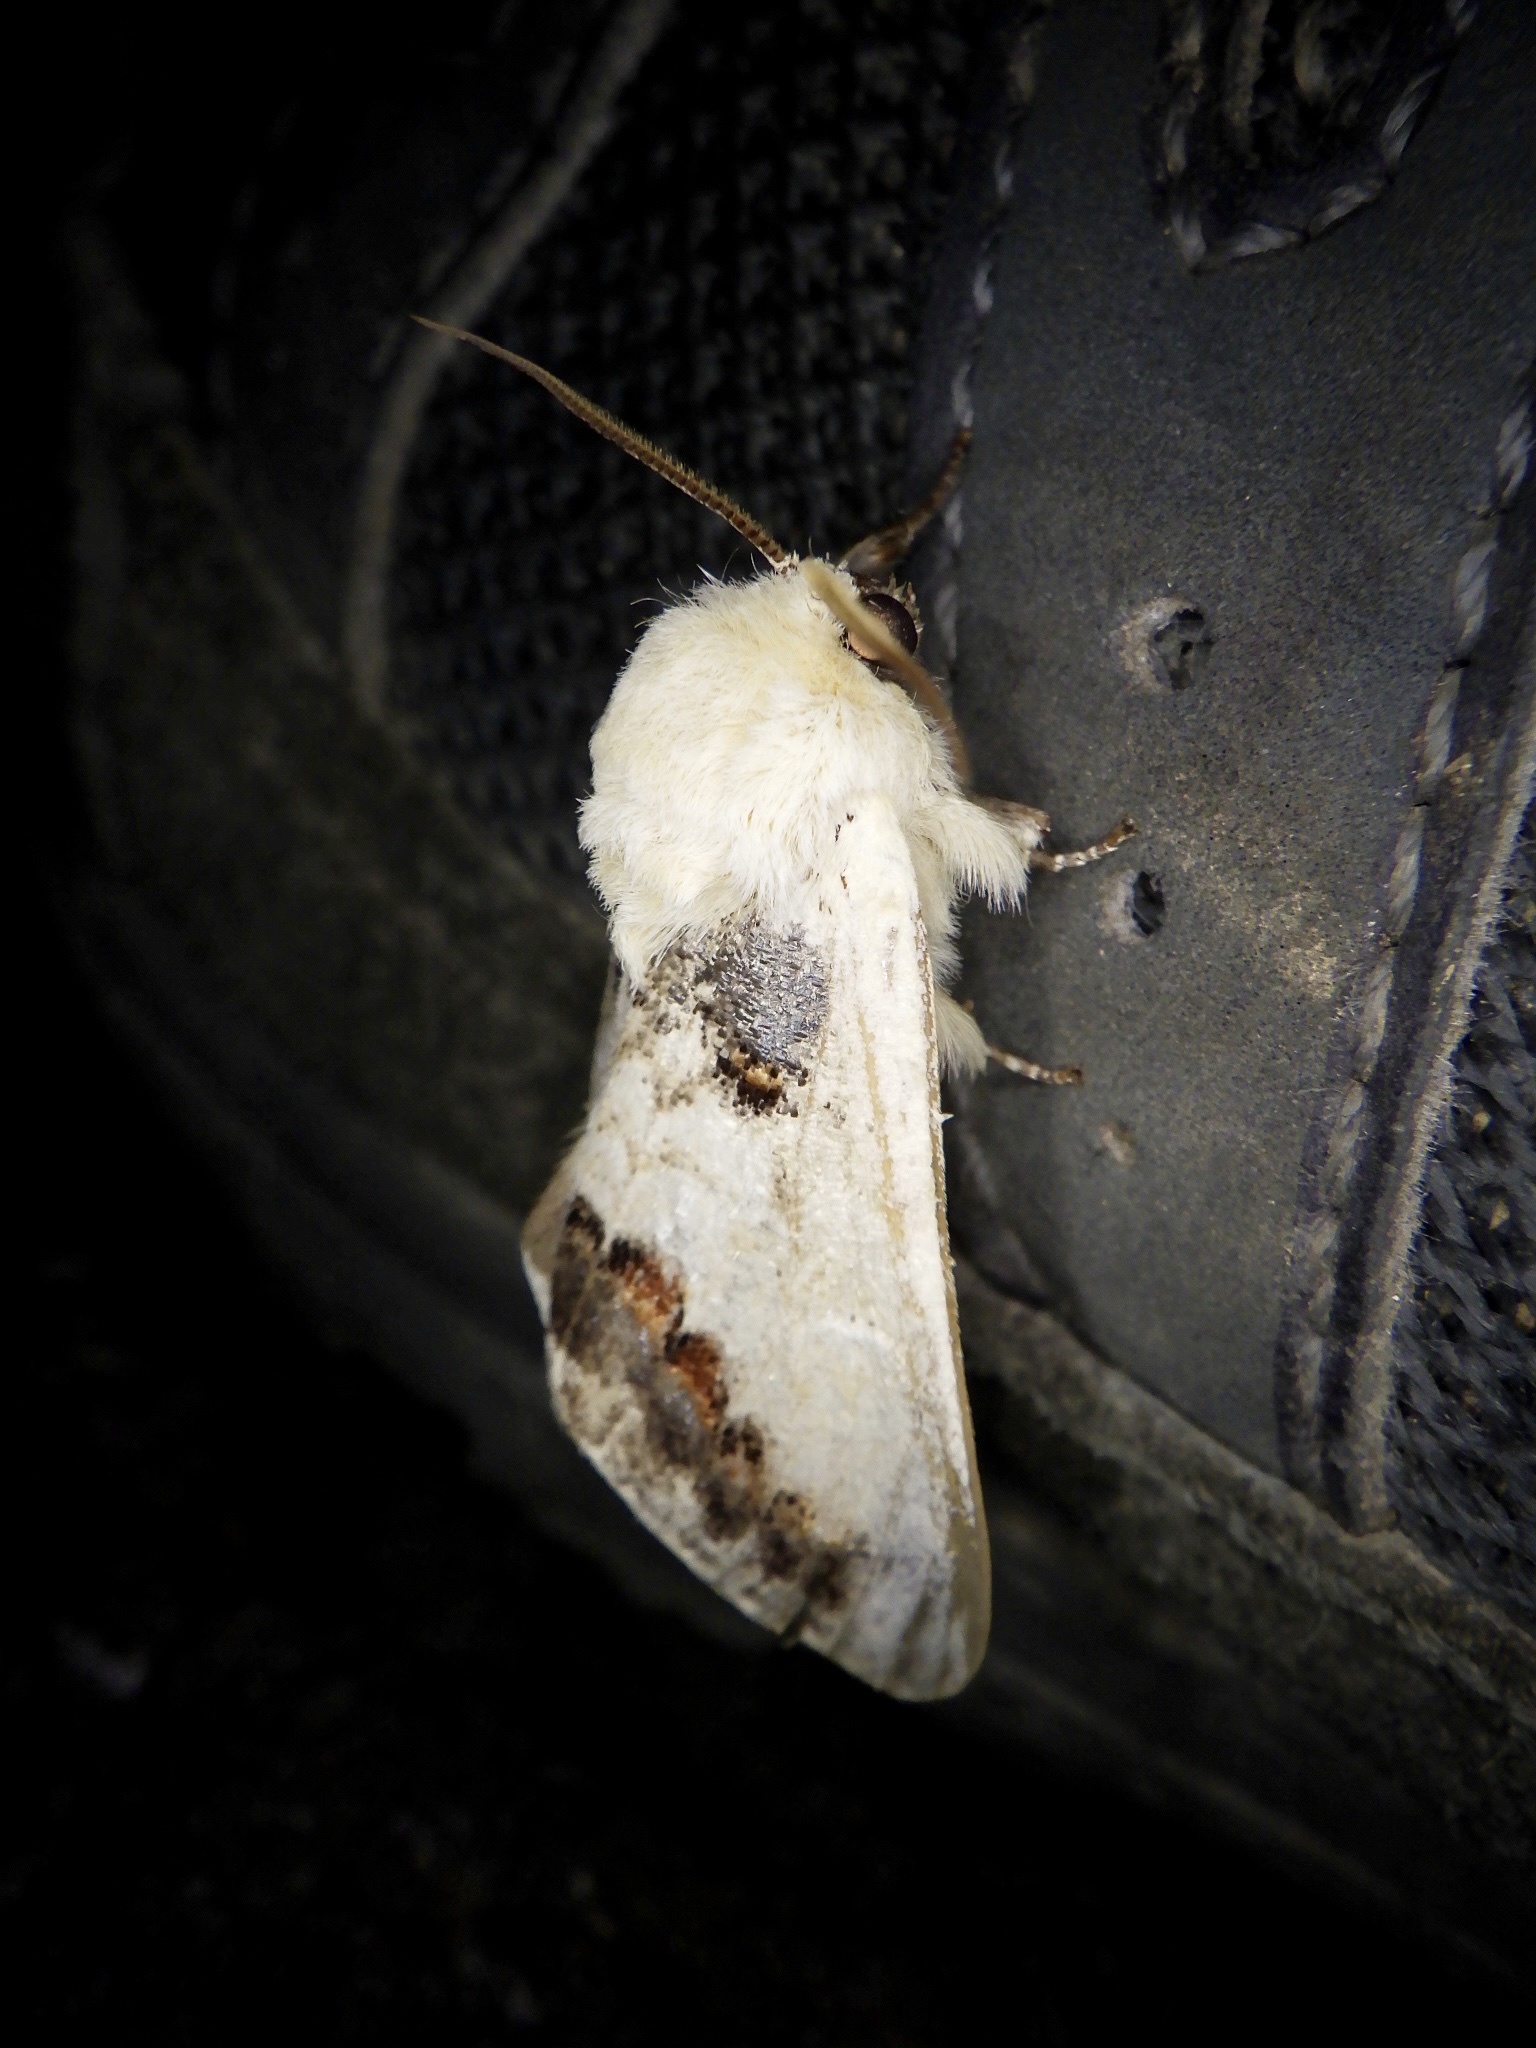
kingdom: Animalia
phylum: Arthropoda
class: Insecta
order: Lepidoptera
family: Notodontidae
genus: Phalera
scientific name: Phalera flavescens
